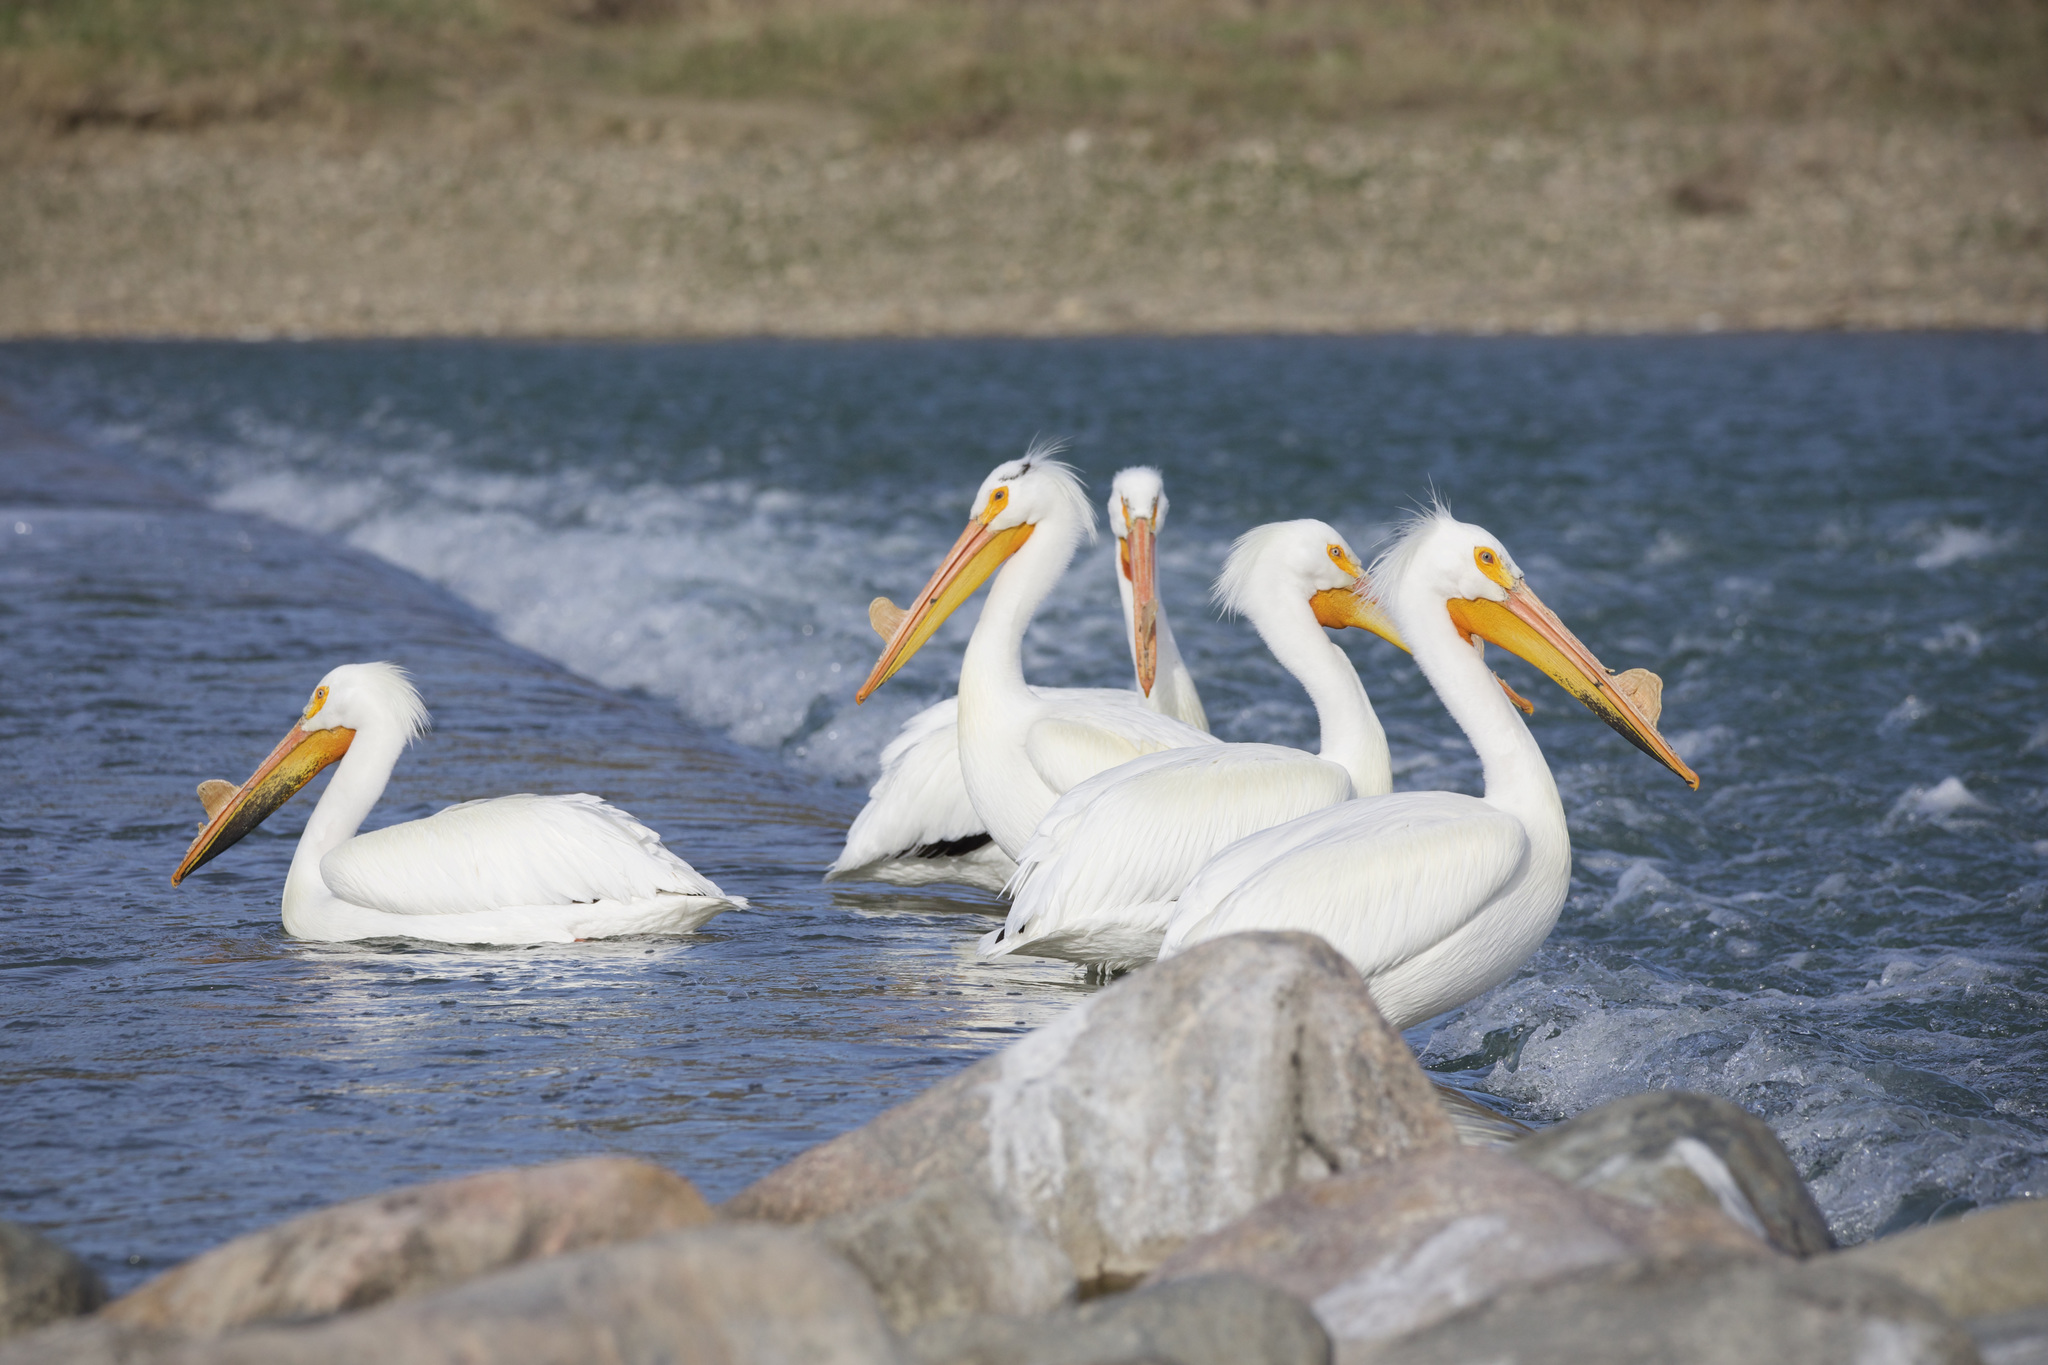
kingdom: Animalia
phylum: Chordata
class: Aves
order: Pelecaniformes
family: Pelecanidae
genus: Pelecanus
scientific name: Pelecanus erythrorhynchos
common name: American white pelican
